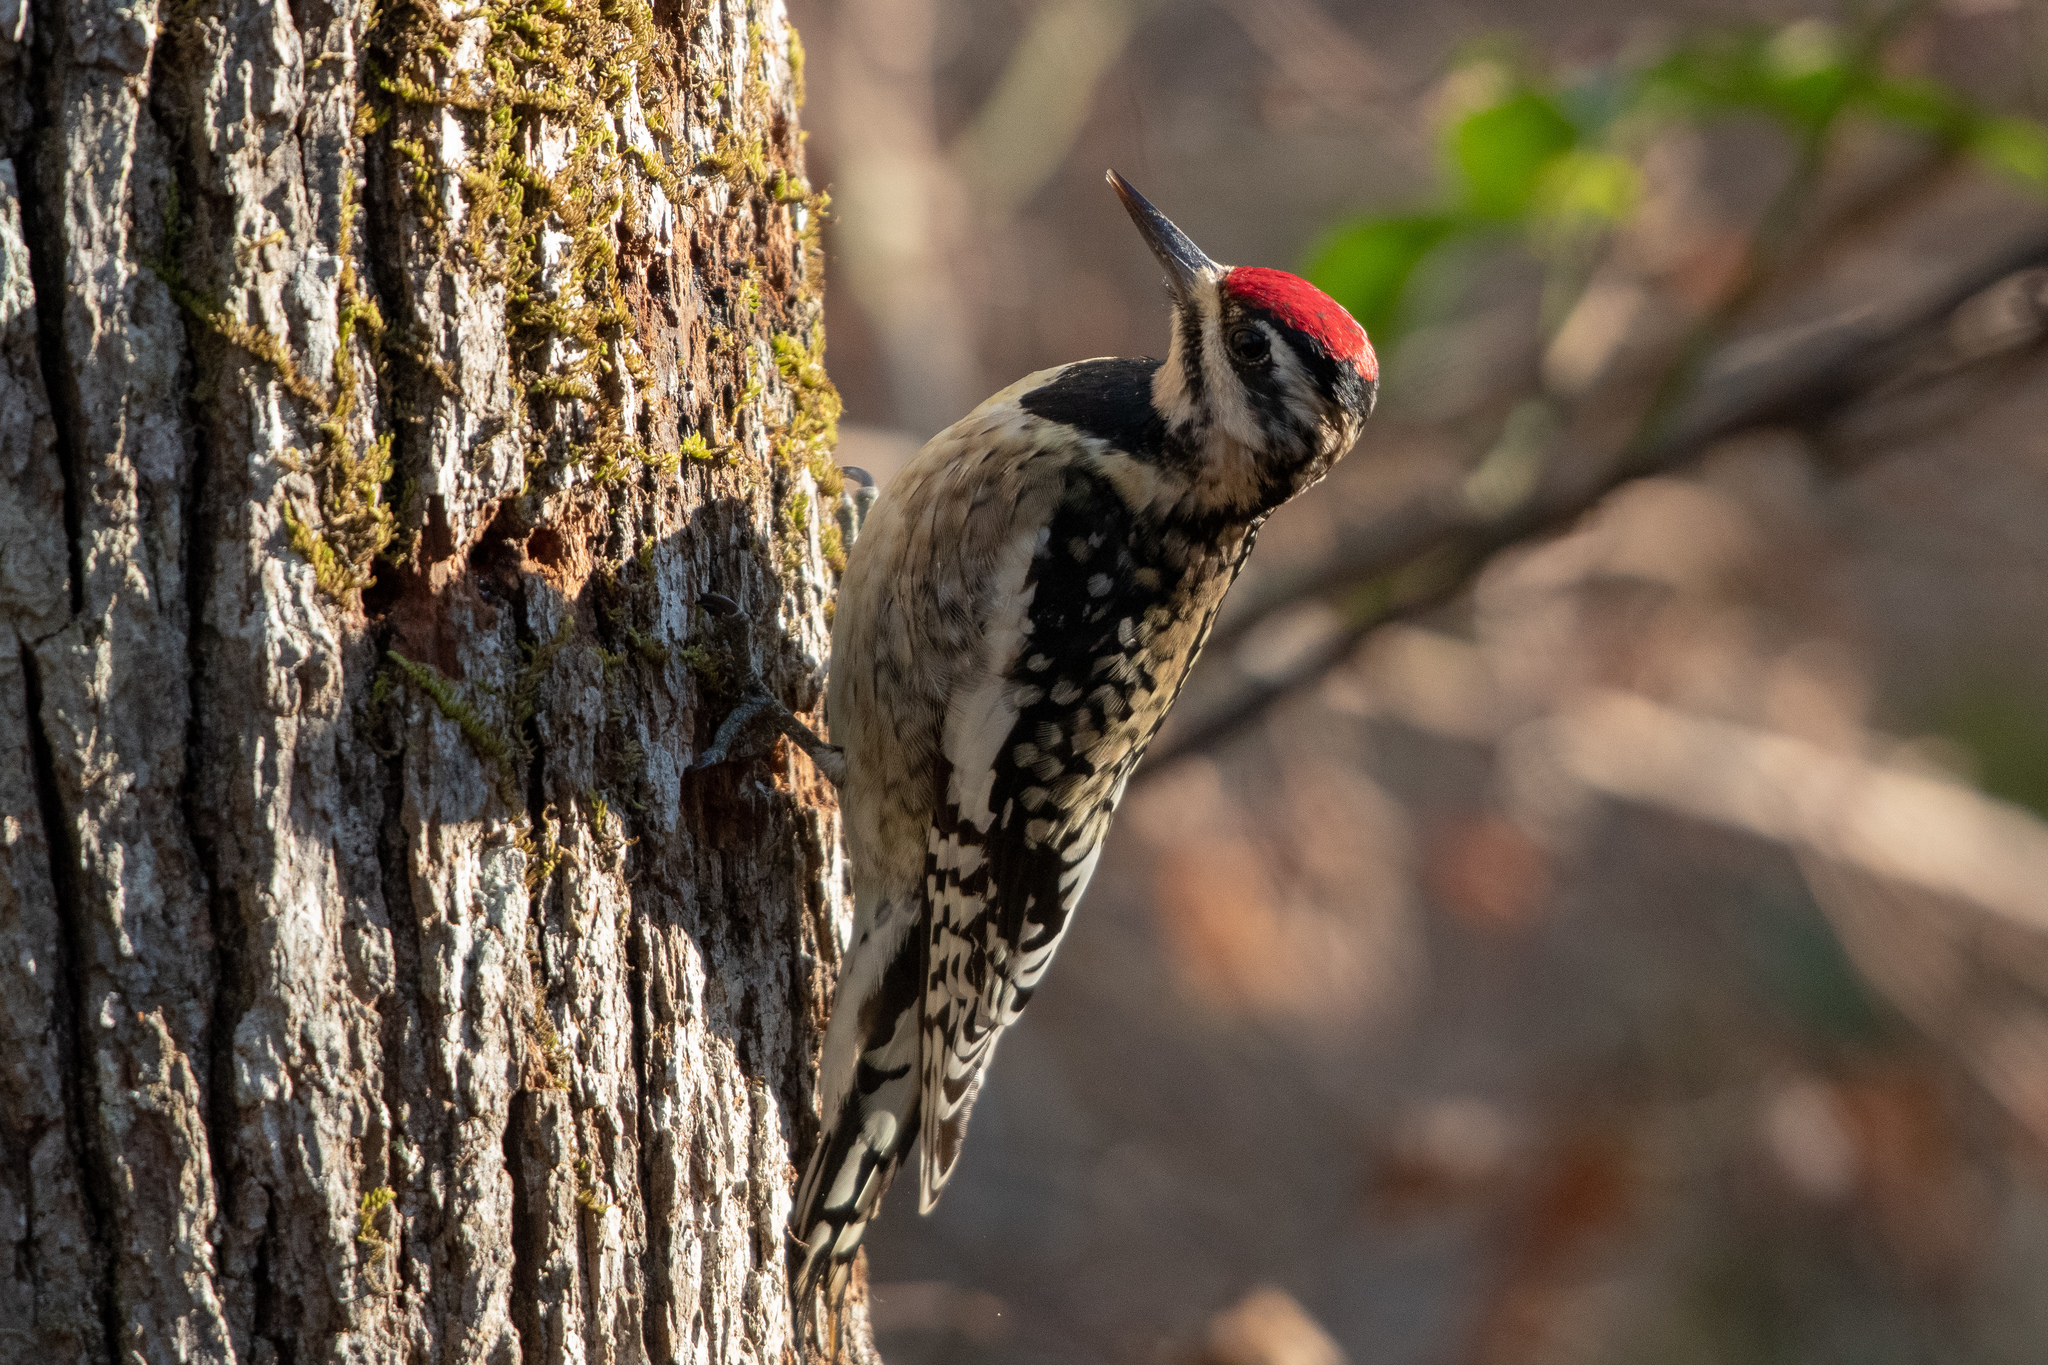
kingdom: Animalia
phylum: Chordata
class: Aves
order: Piciformes
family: Picidae
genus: Sphyrapicus
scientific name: Sphyrapicus varius
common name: Yellow-bellied sapsucker
